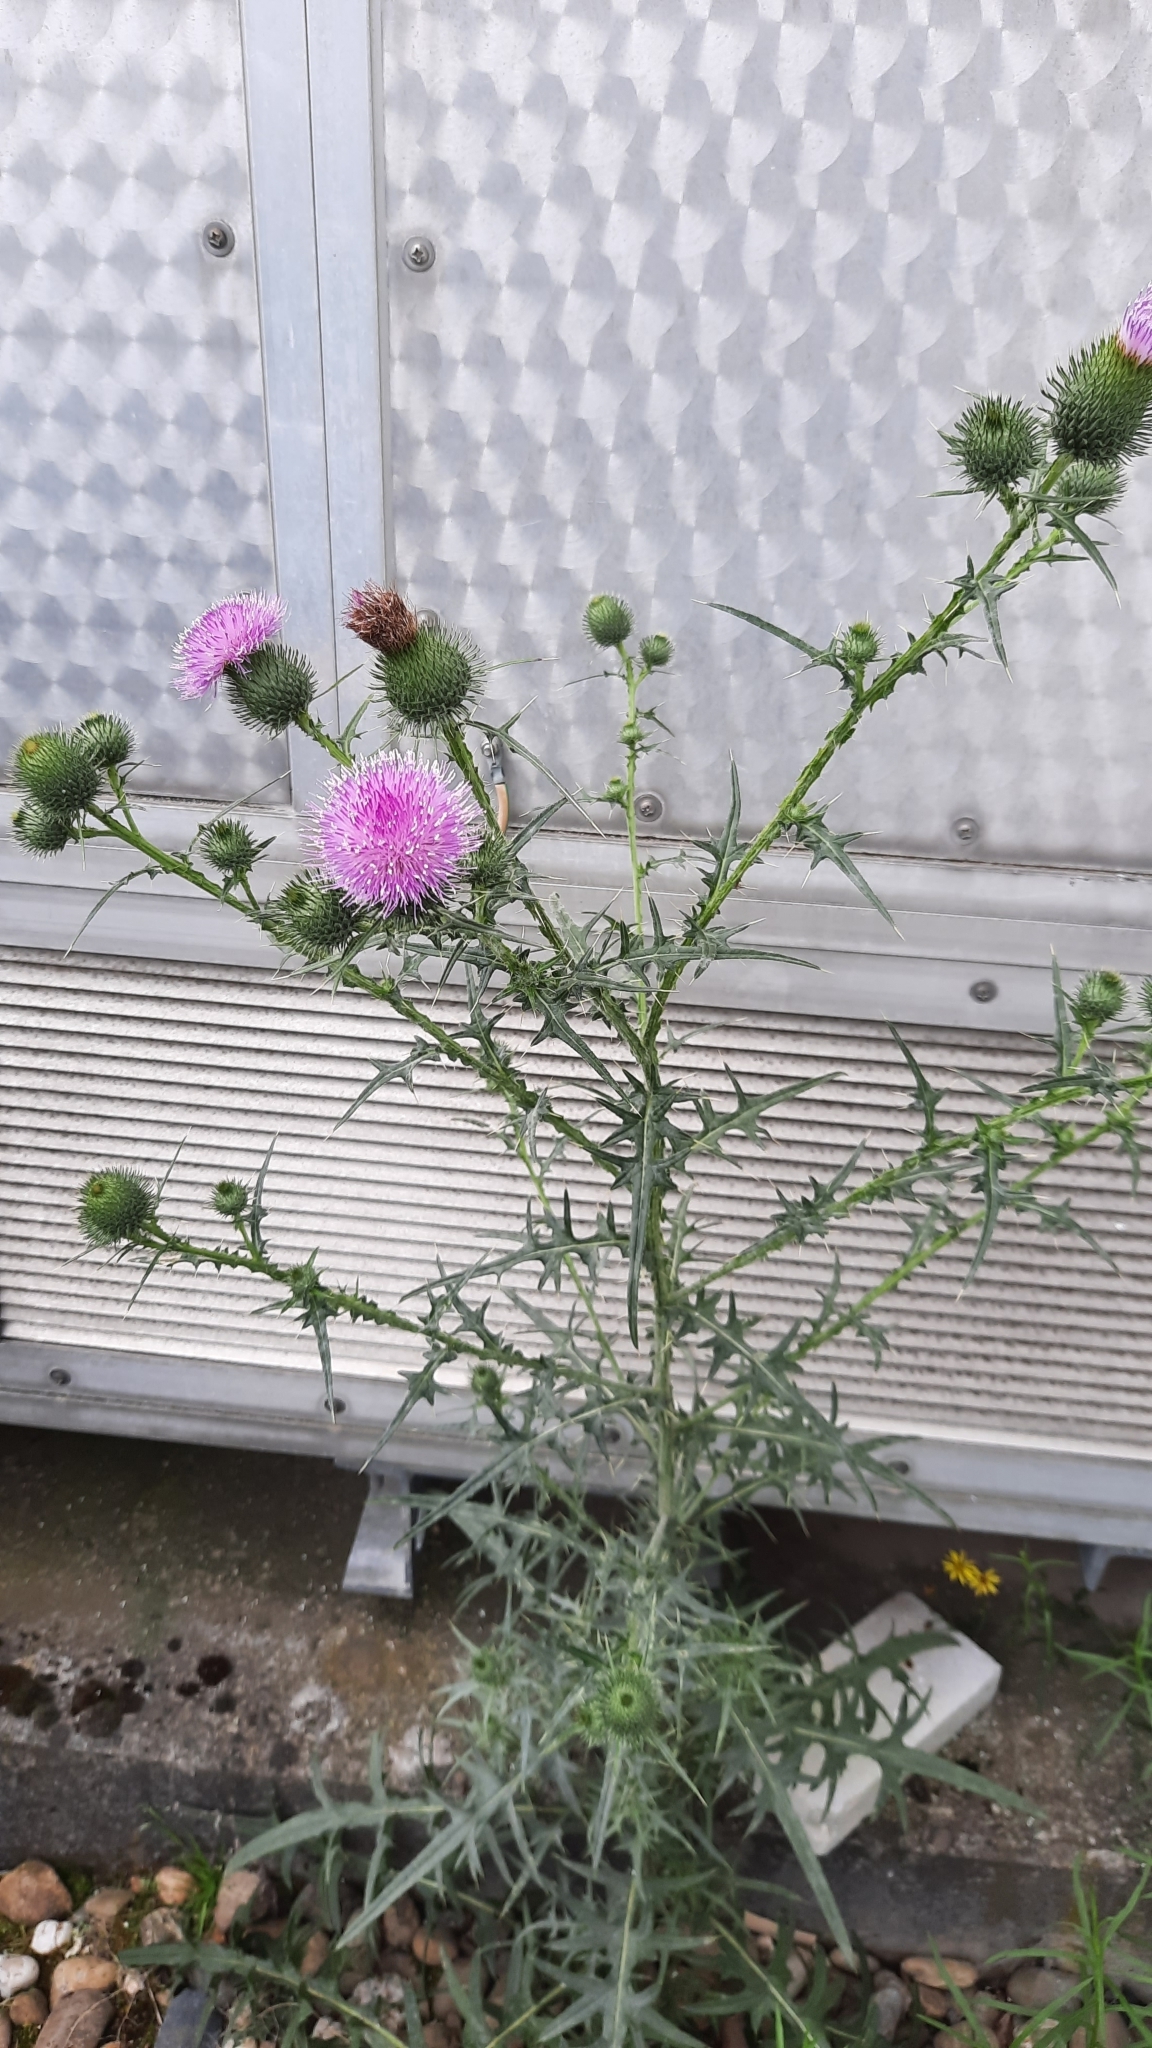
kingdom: Plantae
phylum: Tracheophyta
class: Magnoliopsida
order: Asterales
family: Asteraceae
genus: Cirsium
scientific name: Cirsium vulgare
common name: Bull thistle
